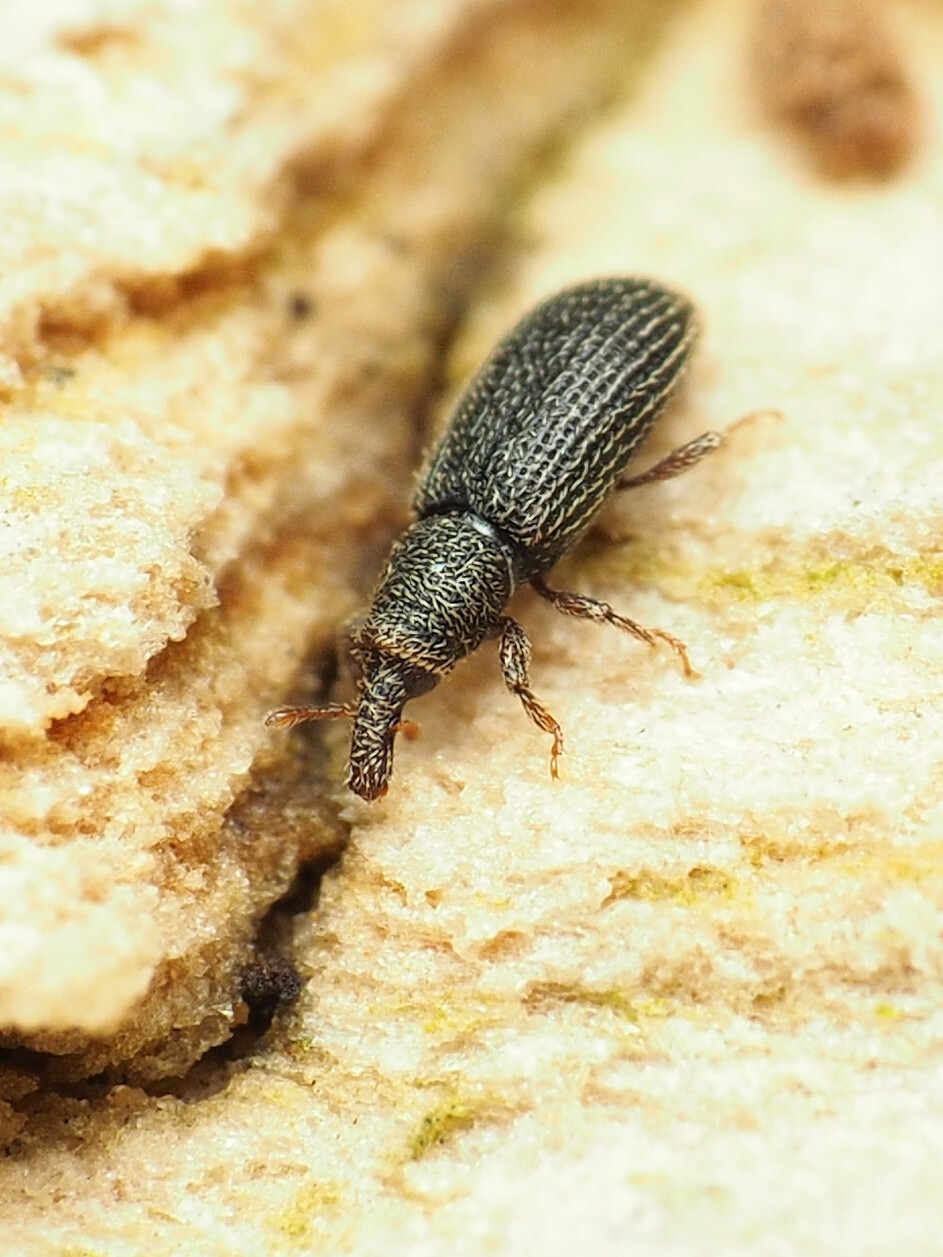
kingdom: Animalia
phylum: Arthropoda
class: Insecta
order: Coleoptera
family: Curculionidae
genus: Himatium
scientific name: Himatium errans
